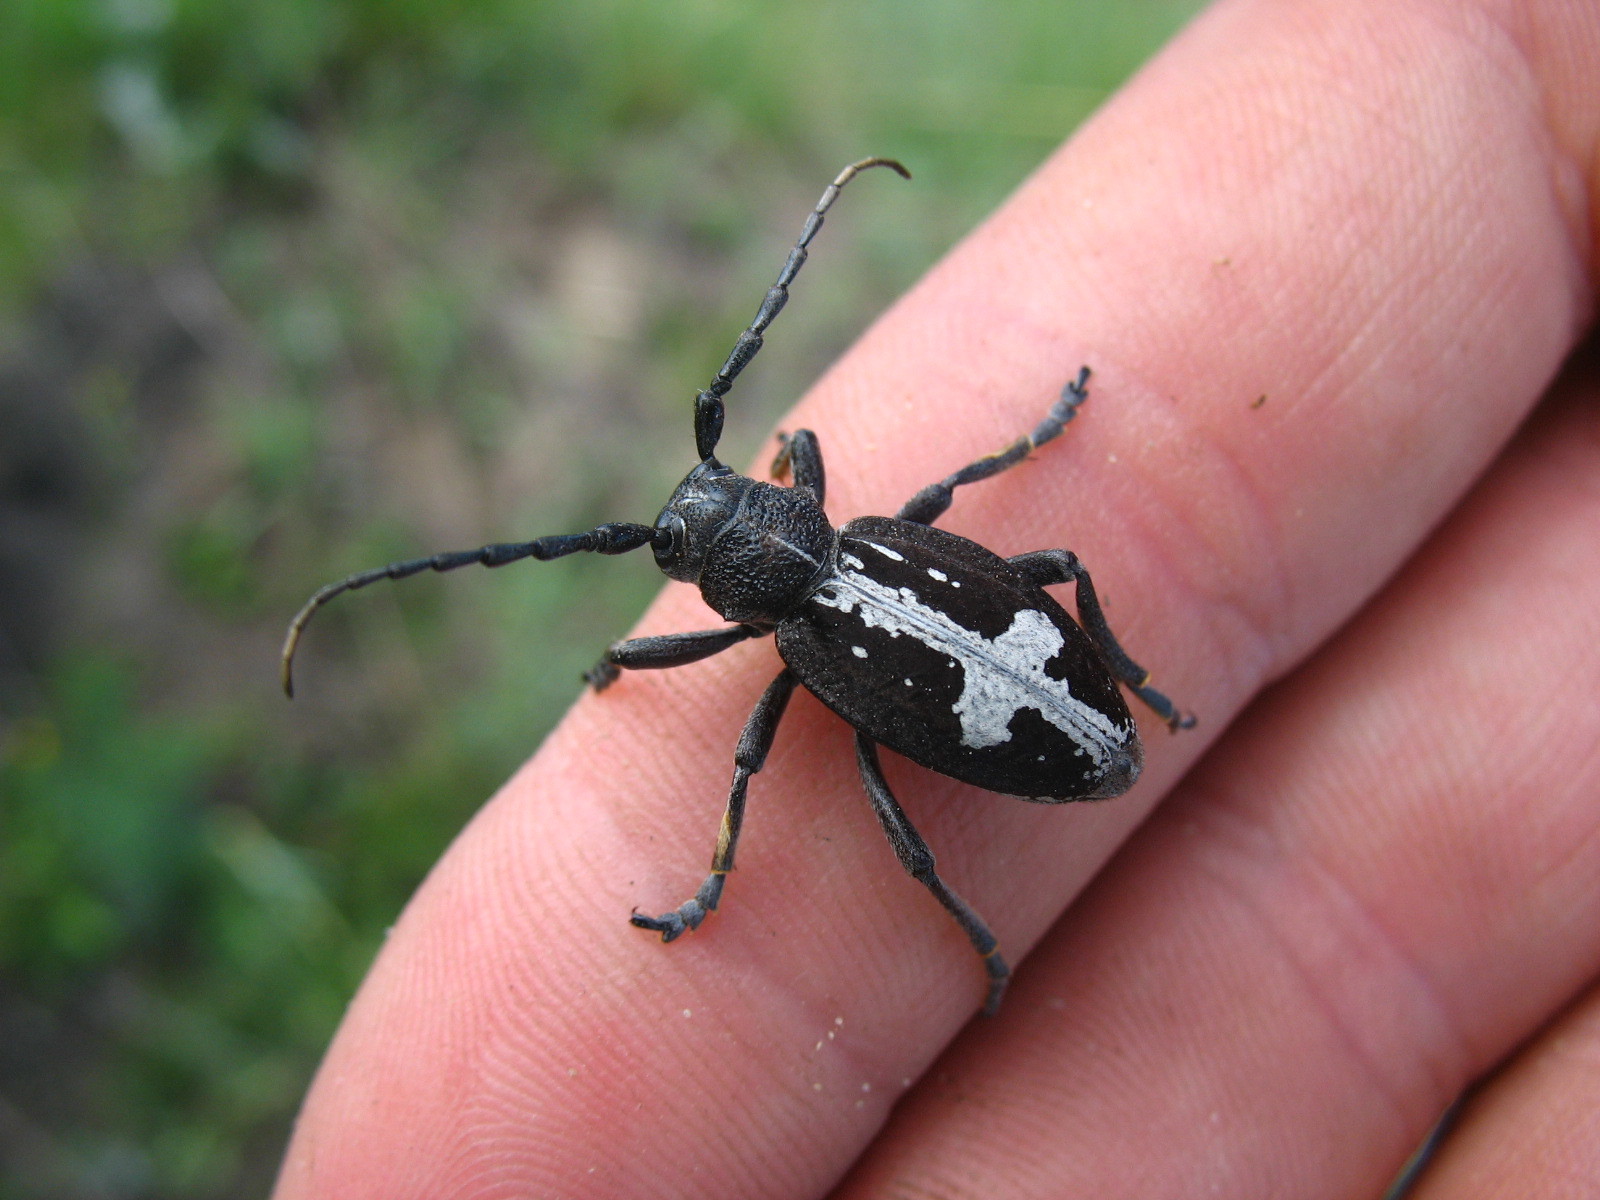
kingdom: Animalia
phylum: Arthropoda
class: Insecta
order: Coleoptera
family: Cerambycidae
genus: Dorcadion
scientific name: Dorcadion equestre
